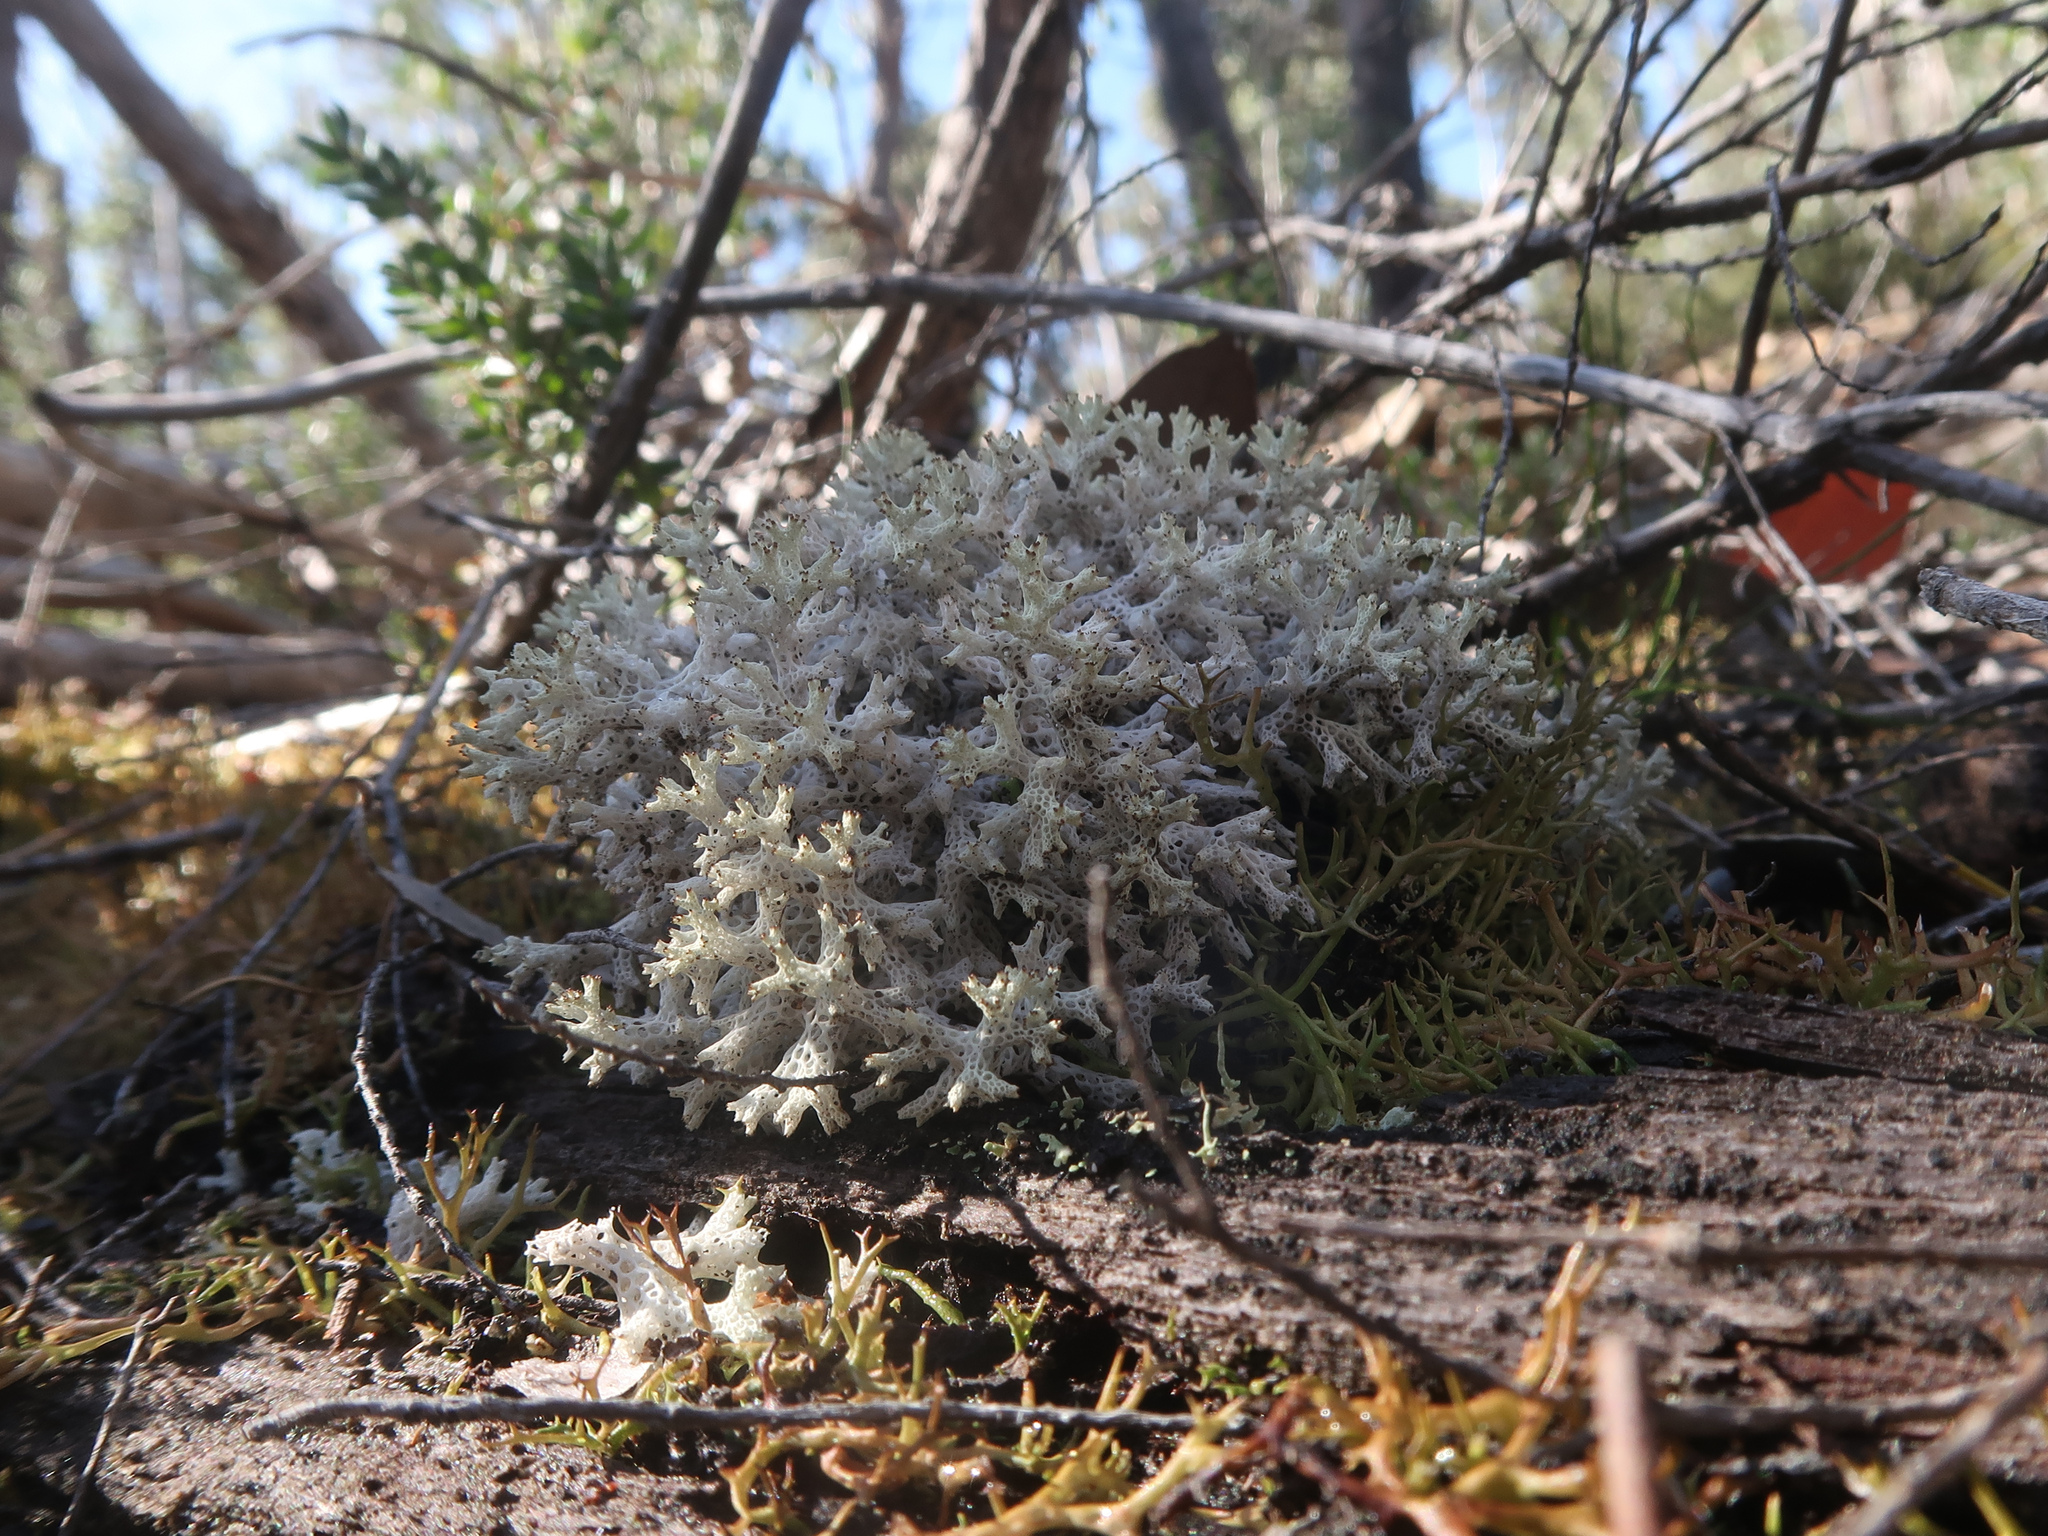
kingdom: Fungi
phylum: Ascomycota
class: Lecanoromycetes
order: Lecanorales
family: Cladoniaceae
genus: Pulchrocladia
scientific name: Pulchrocladia retipora
